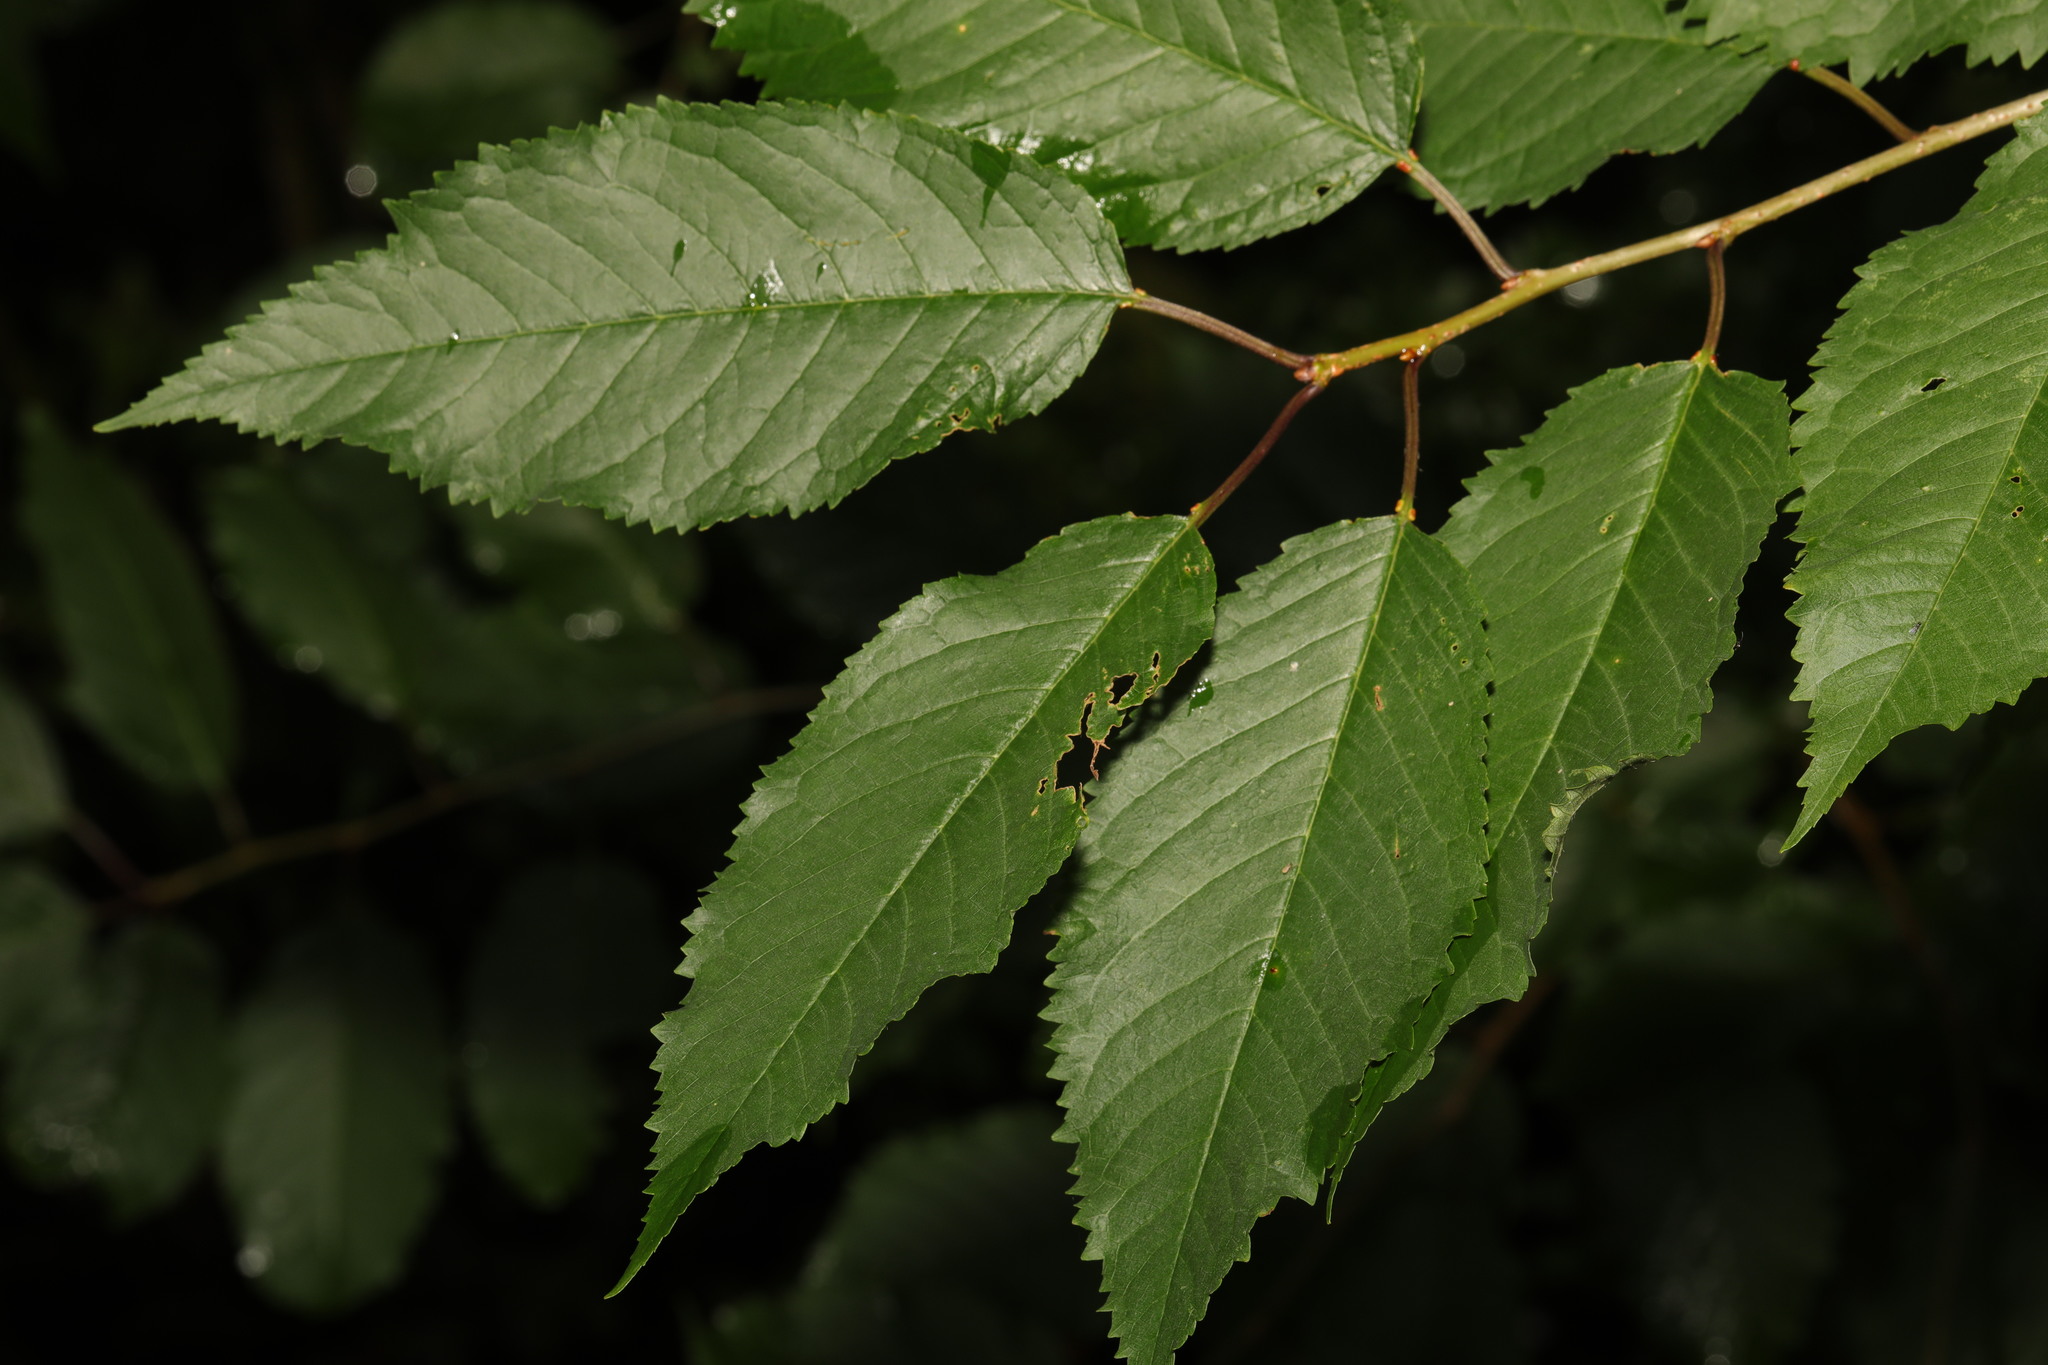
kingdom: Plantae
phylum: Tracheophyta
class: Magnoliopsida
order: Rosales
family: Rosaceae
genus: Prunus
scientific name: Prunus avium
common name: Sweet cherry
